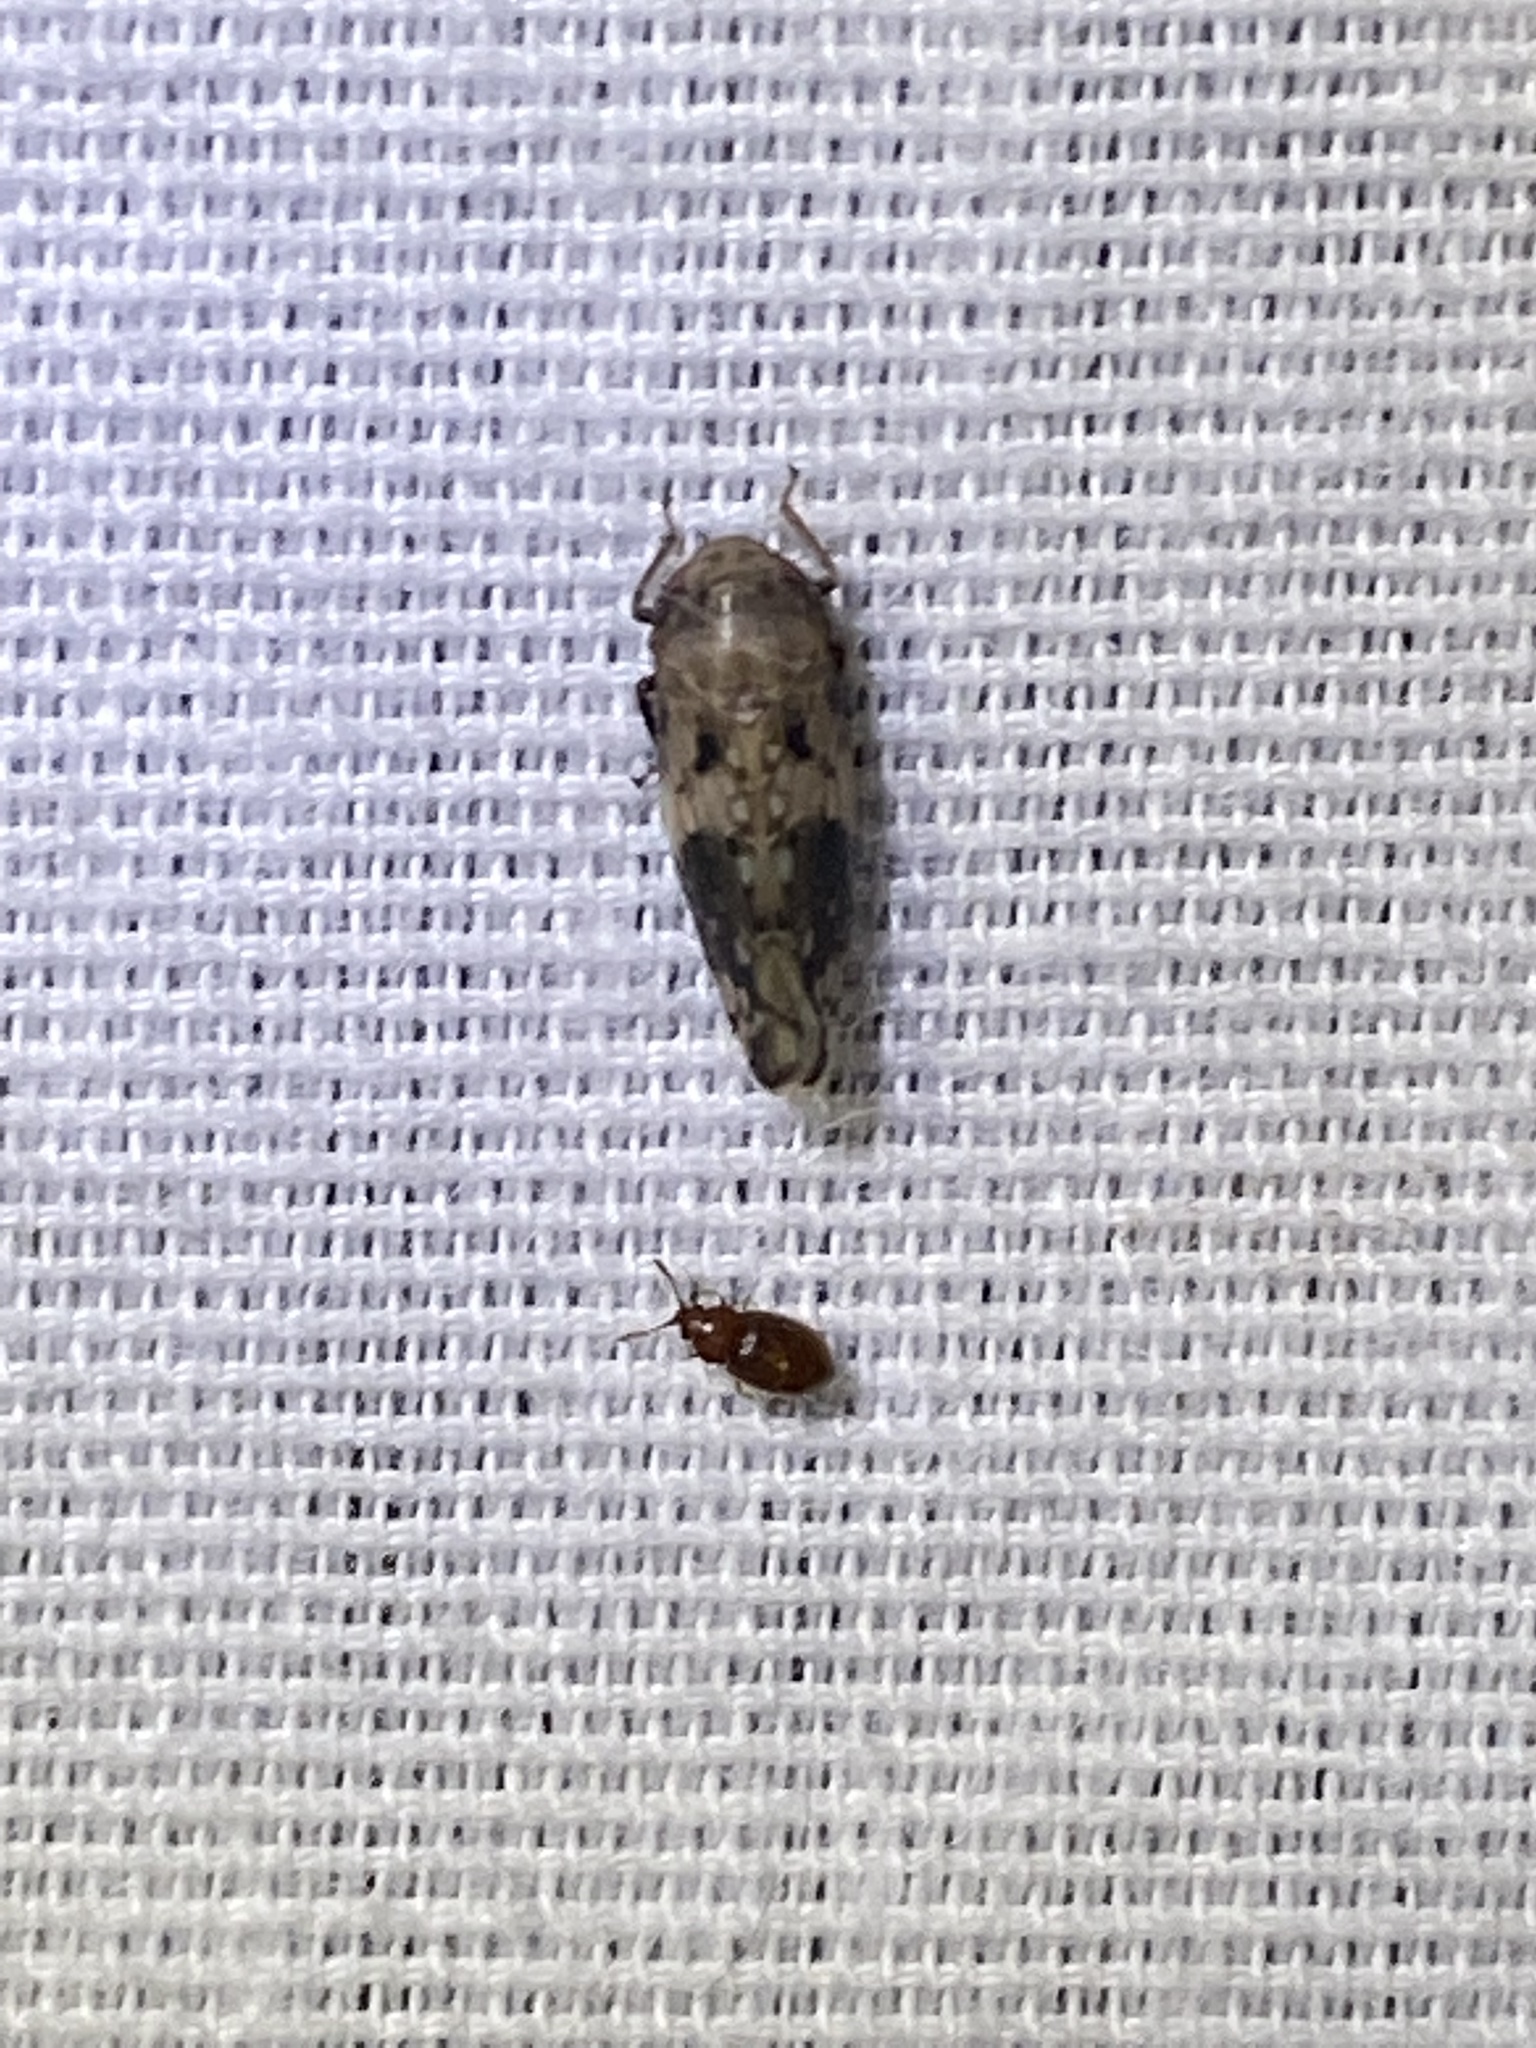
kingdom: Animalia
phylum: Arthropoda
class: Insecta
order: Hemiptera
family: Cicadellidae
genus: Menosoma
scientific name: Menosoma cinctum
